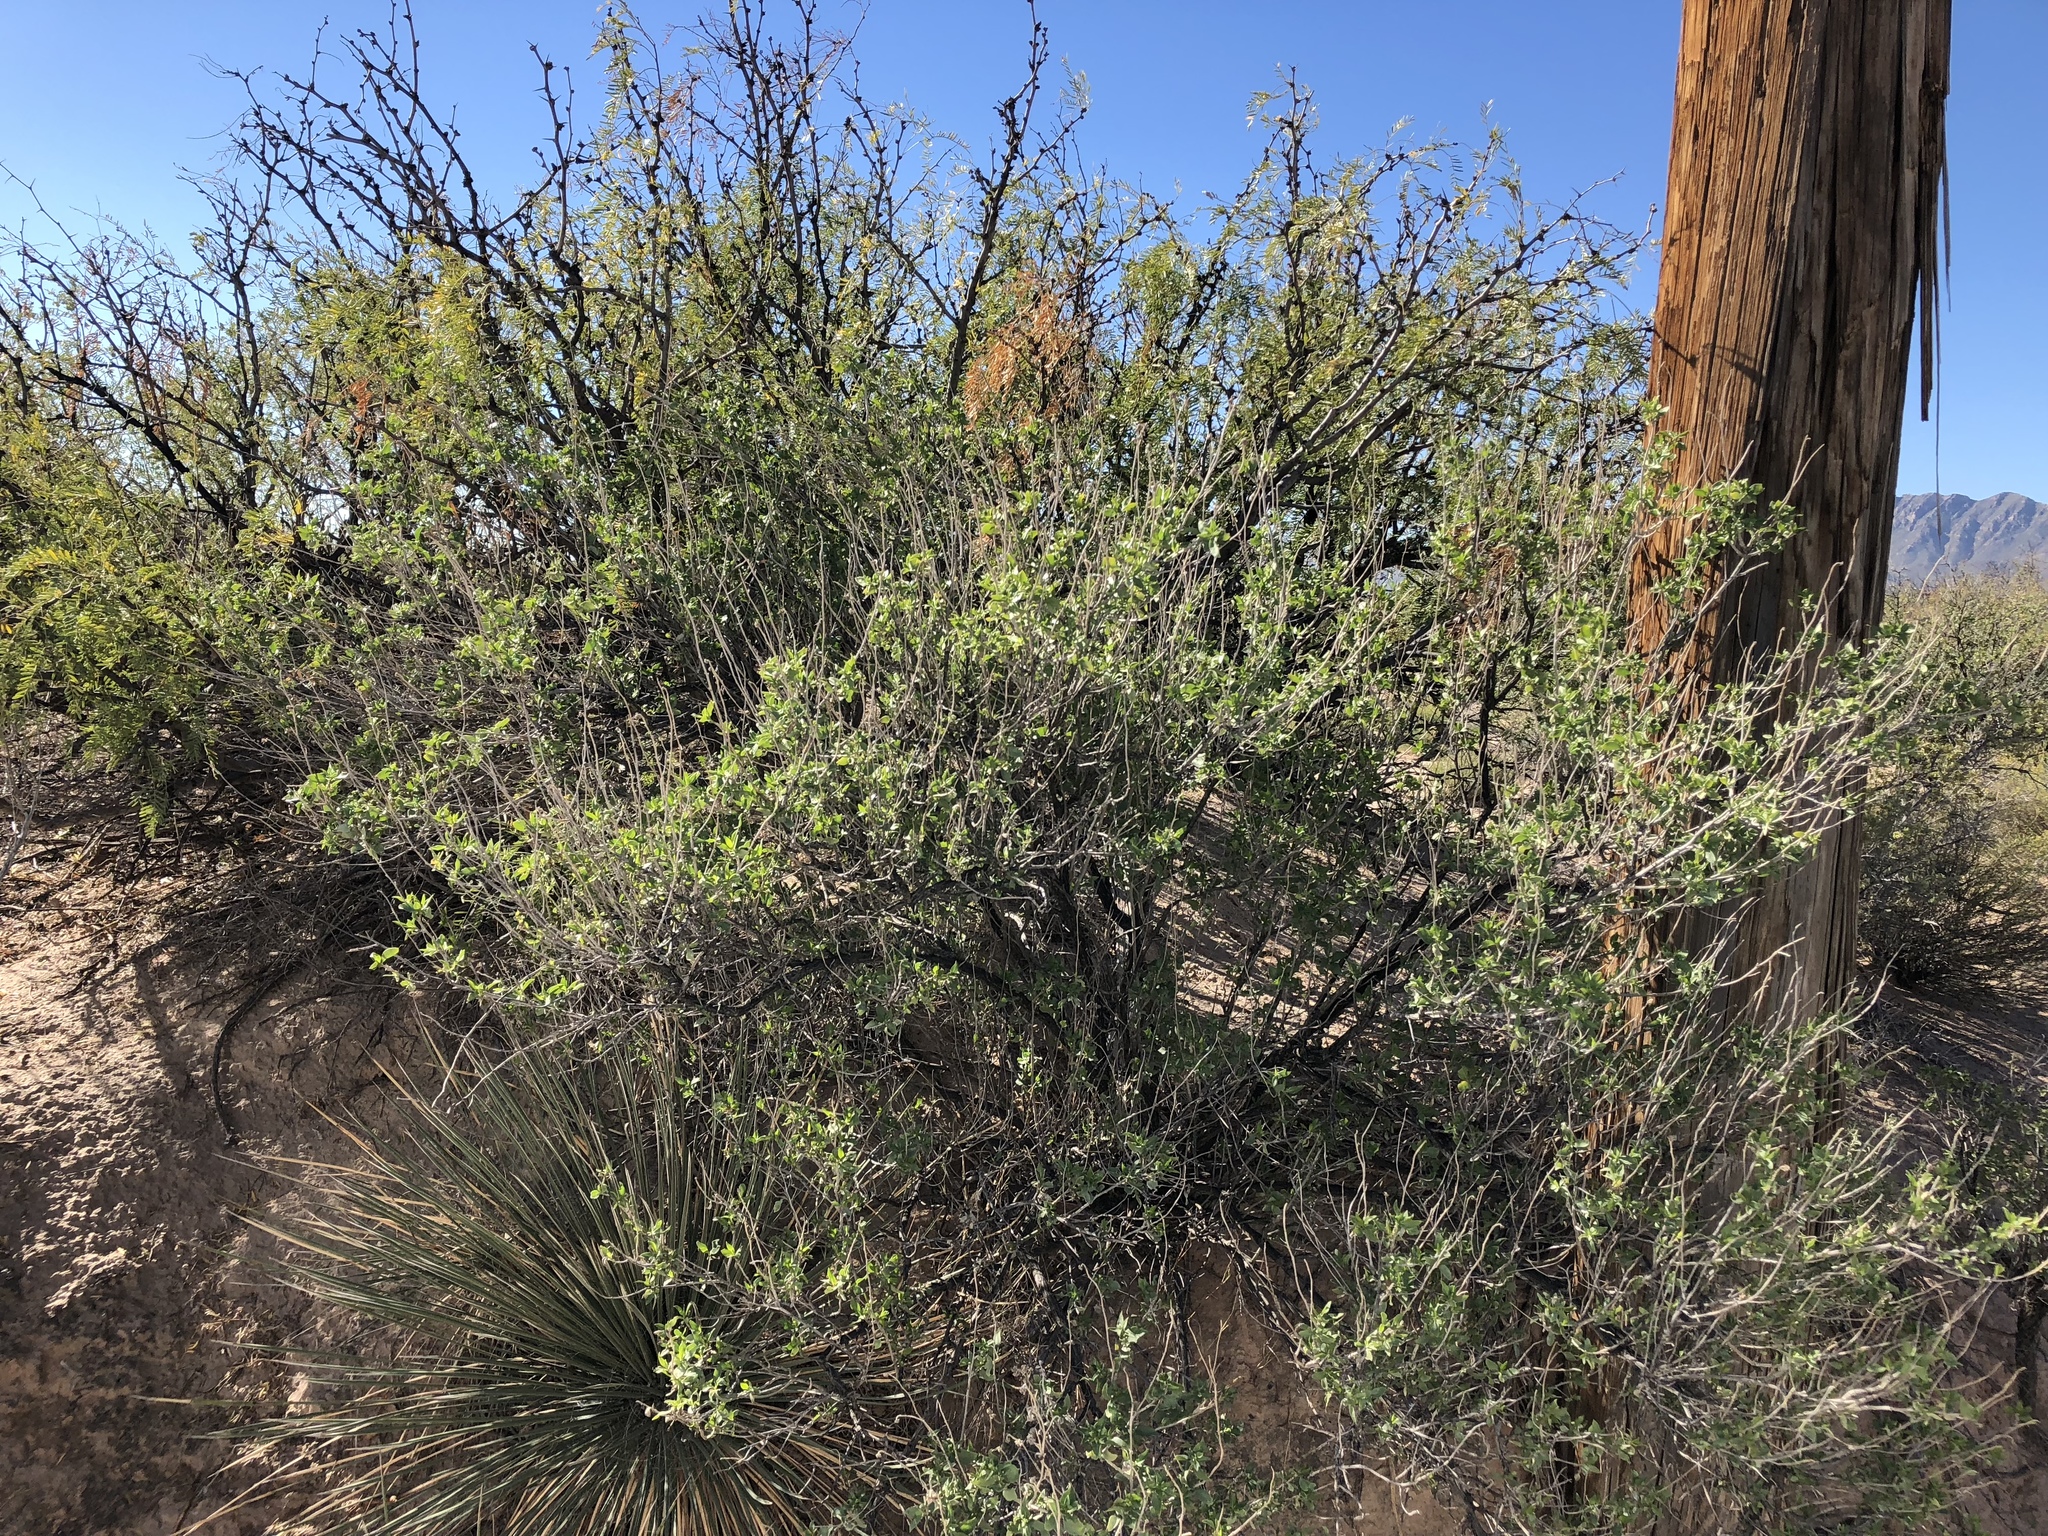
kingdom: Plantae
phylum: Tracheophyta
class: Magnoliopsida
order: Asterales
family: Asteraceae
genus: Flourensia
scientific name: Flourensia cernua
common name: Varnishbush
